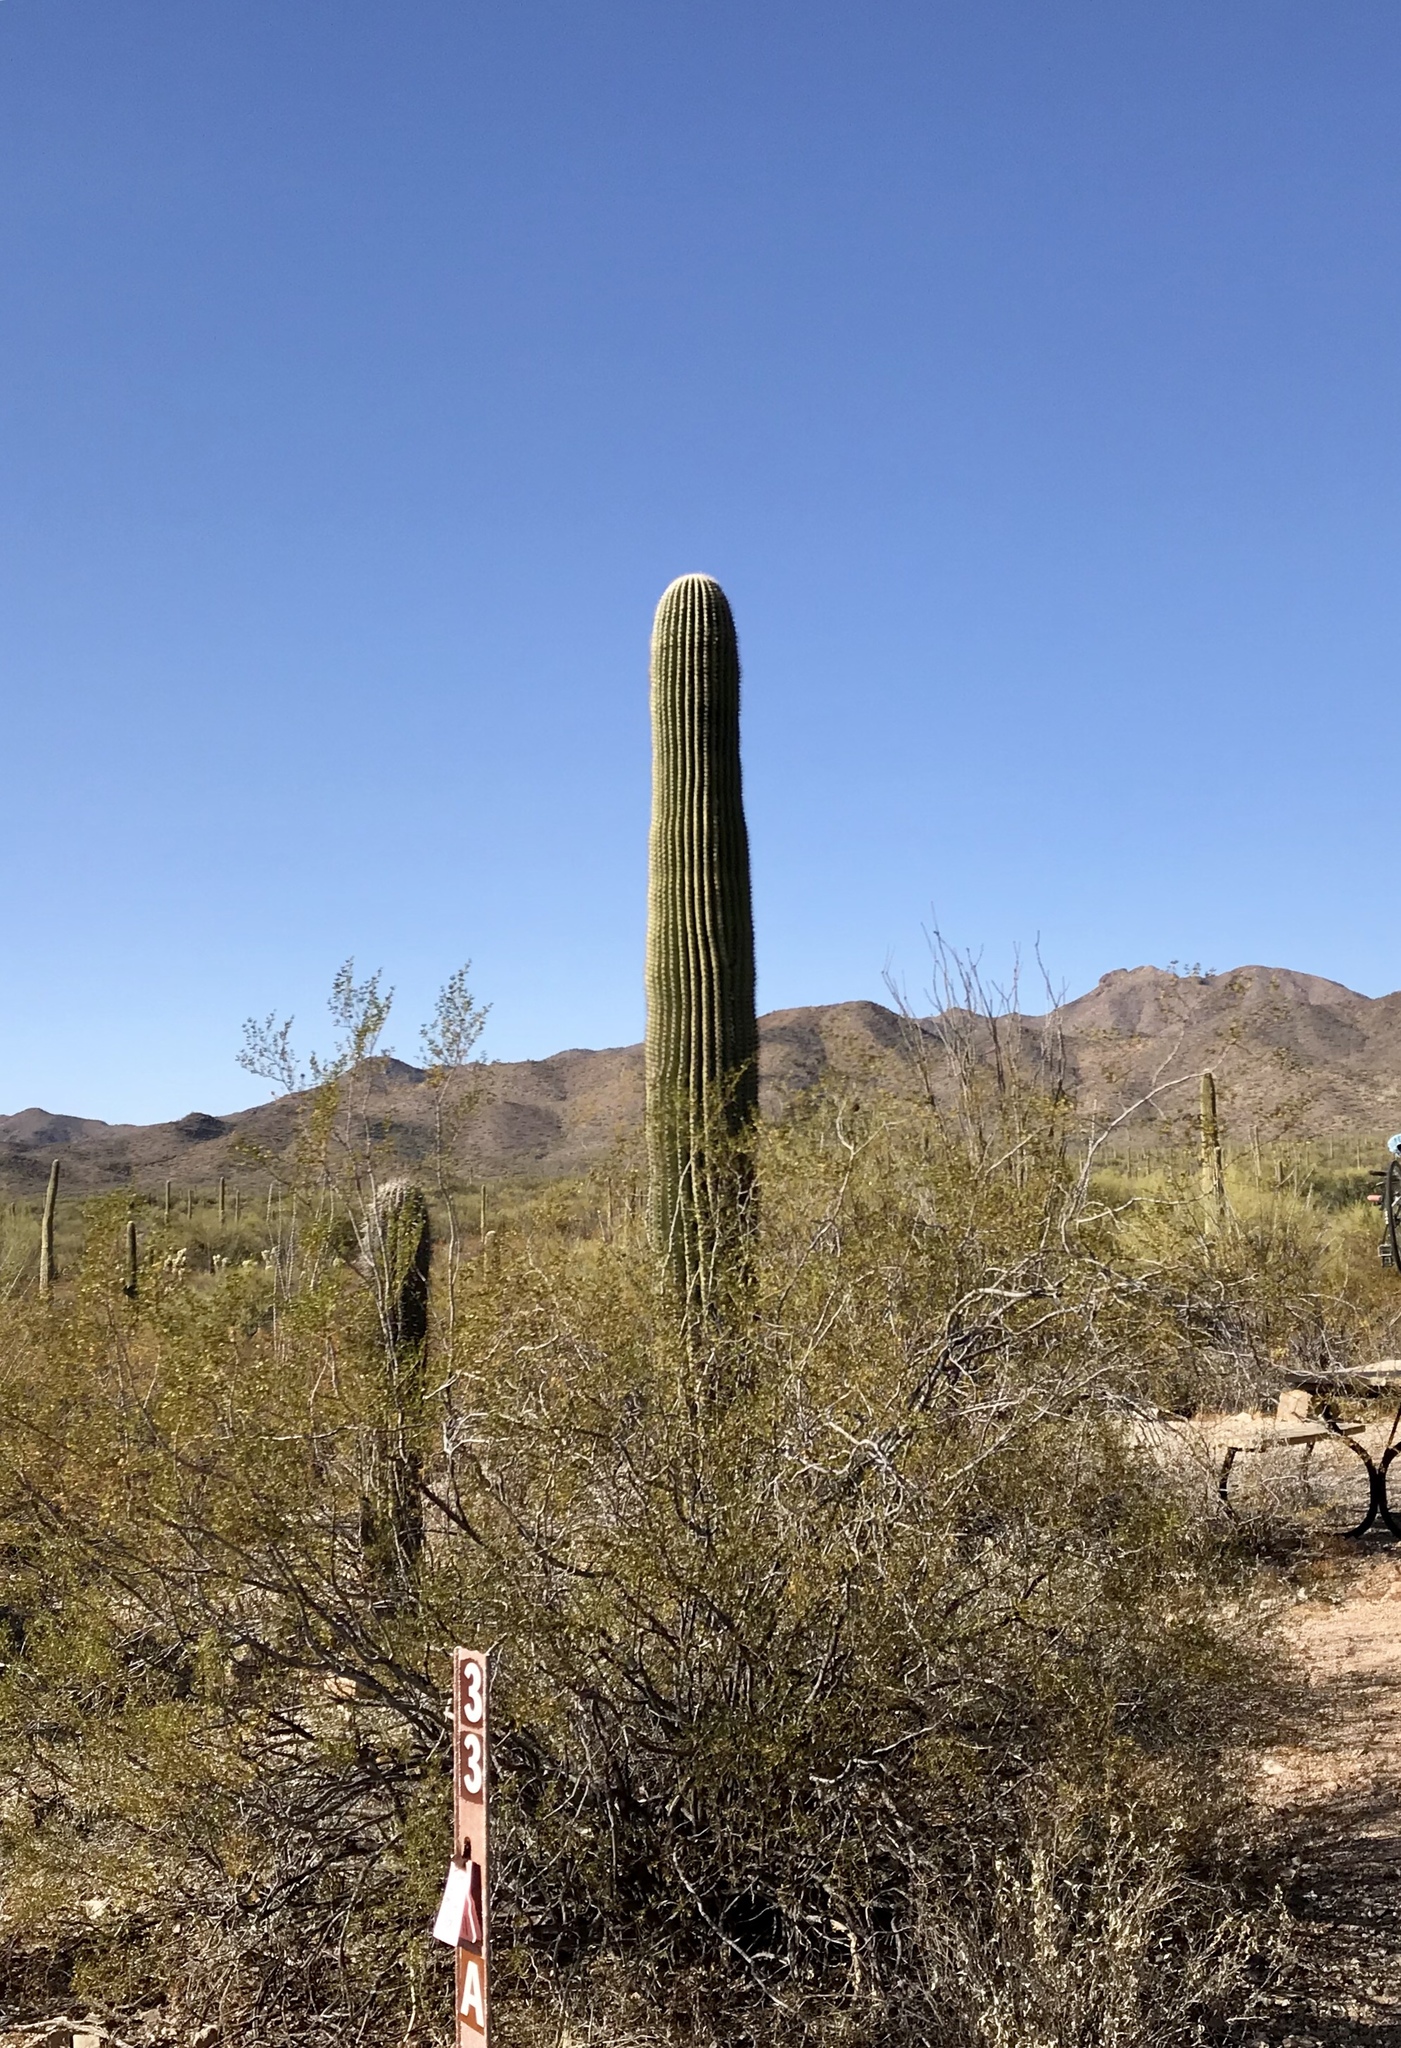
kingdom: Plantae
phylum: Tracheophyta
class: Magnoliopsida
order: Caryophyllales
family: Cactaceae
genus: Carnegiea
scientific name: Carnegiea gigantea
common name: Saguaro
